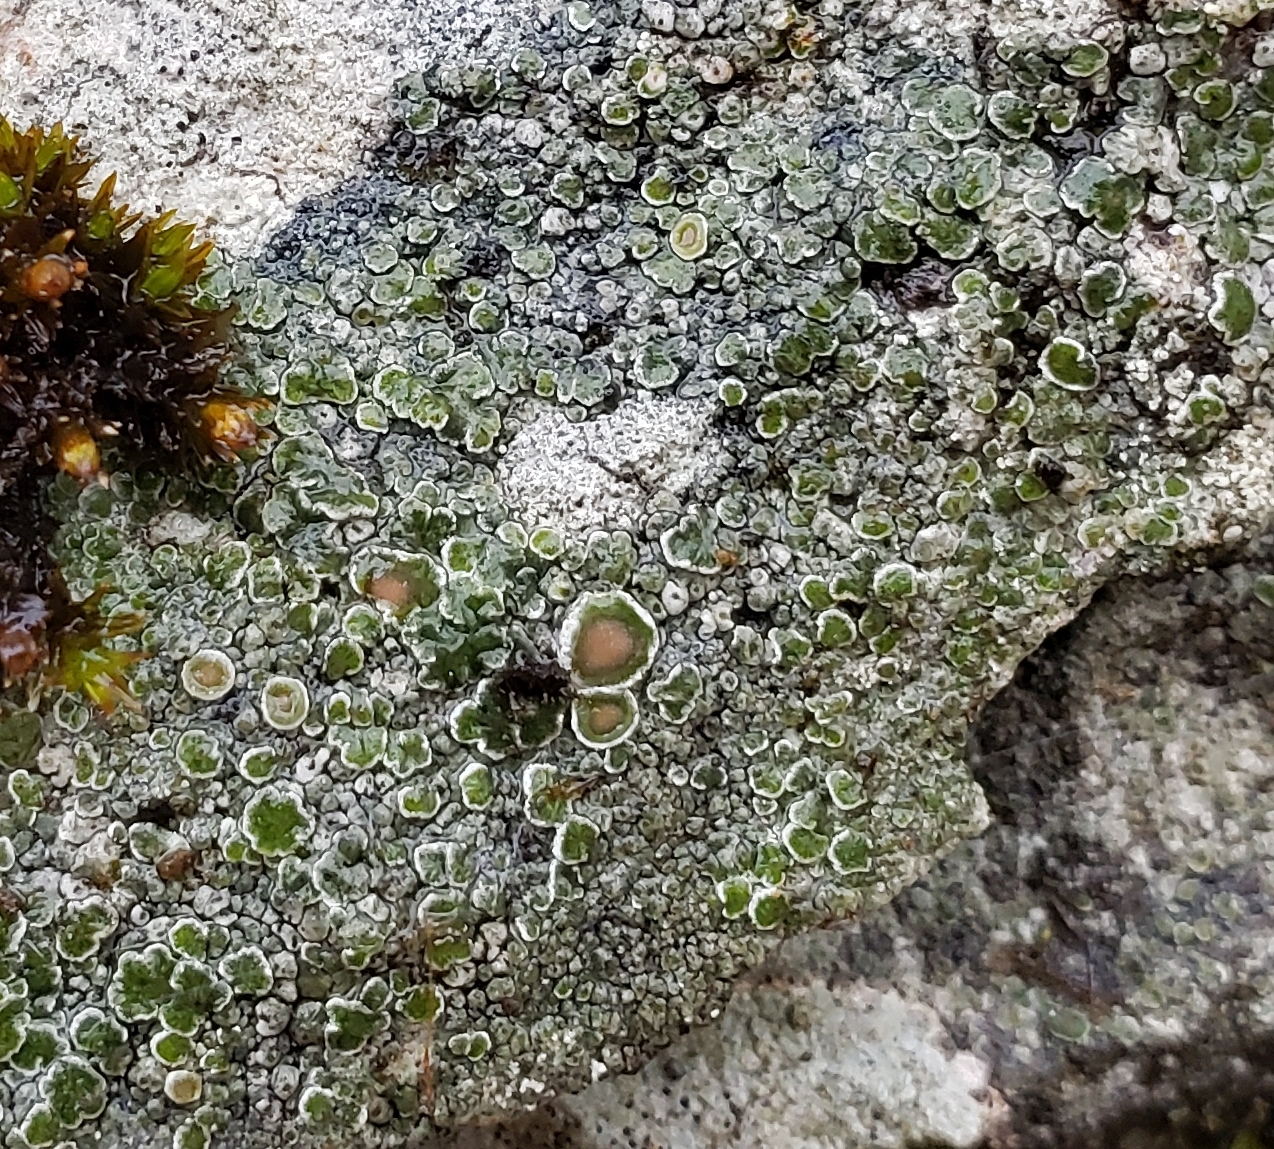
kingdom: Fungi
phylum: Ascomycota
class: Lecanoromycetes
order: Lecanorales
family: Lecanoraceae
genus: Protoparmeliopsis
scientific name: Protoparmeliopsis muralis
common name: Stonewall rim lichen
